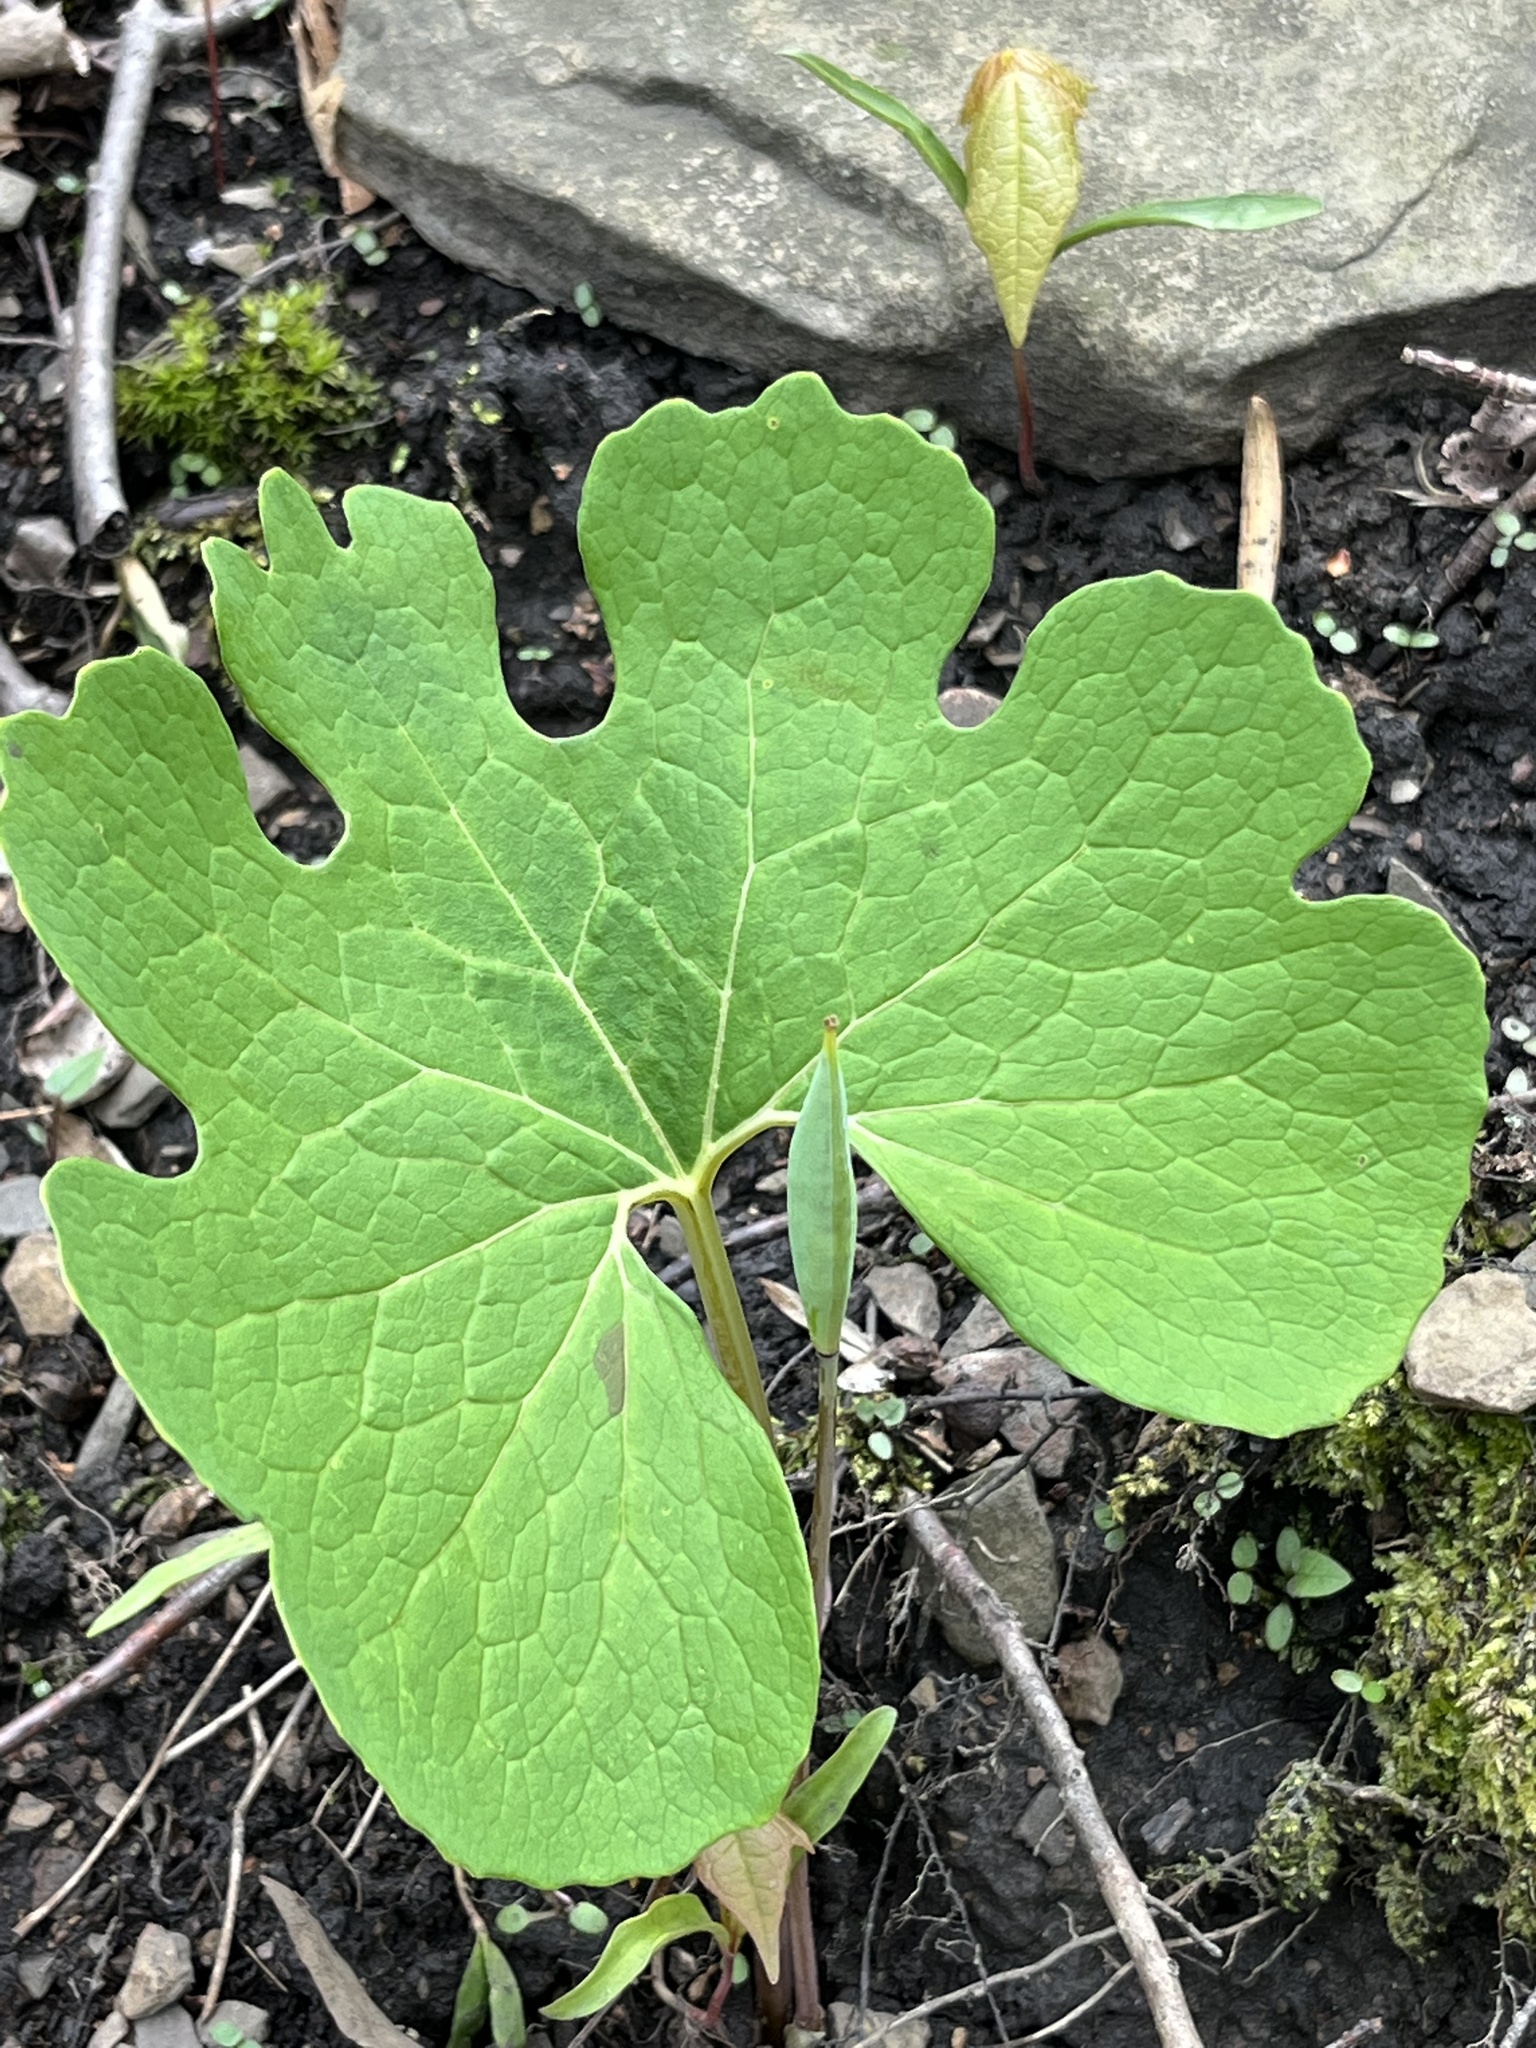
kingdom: Plantae
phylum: Tracheophyta
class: Magnoliopsida
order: Ranunculales
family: Papaveraceae
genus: Sanguinaria
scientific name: Sanguinaria canadensis
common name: Bloodroot
